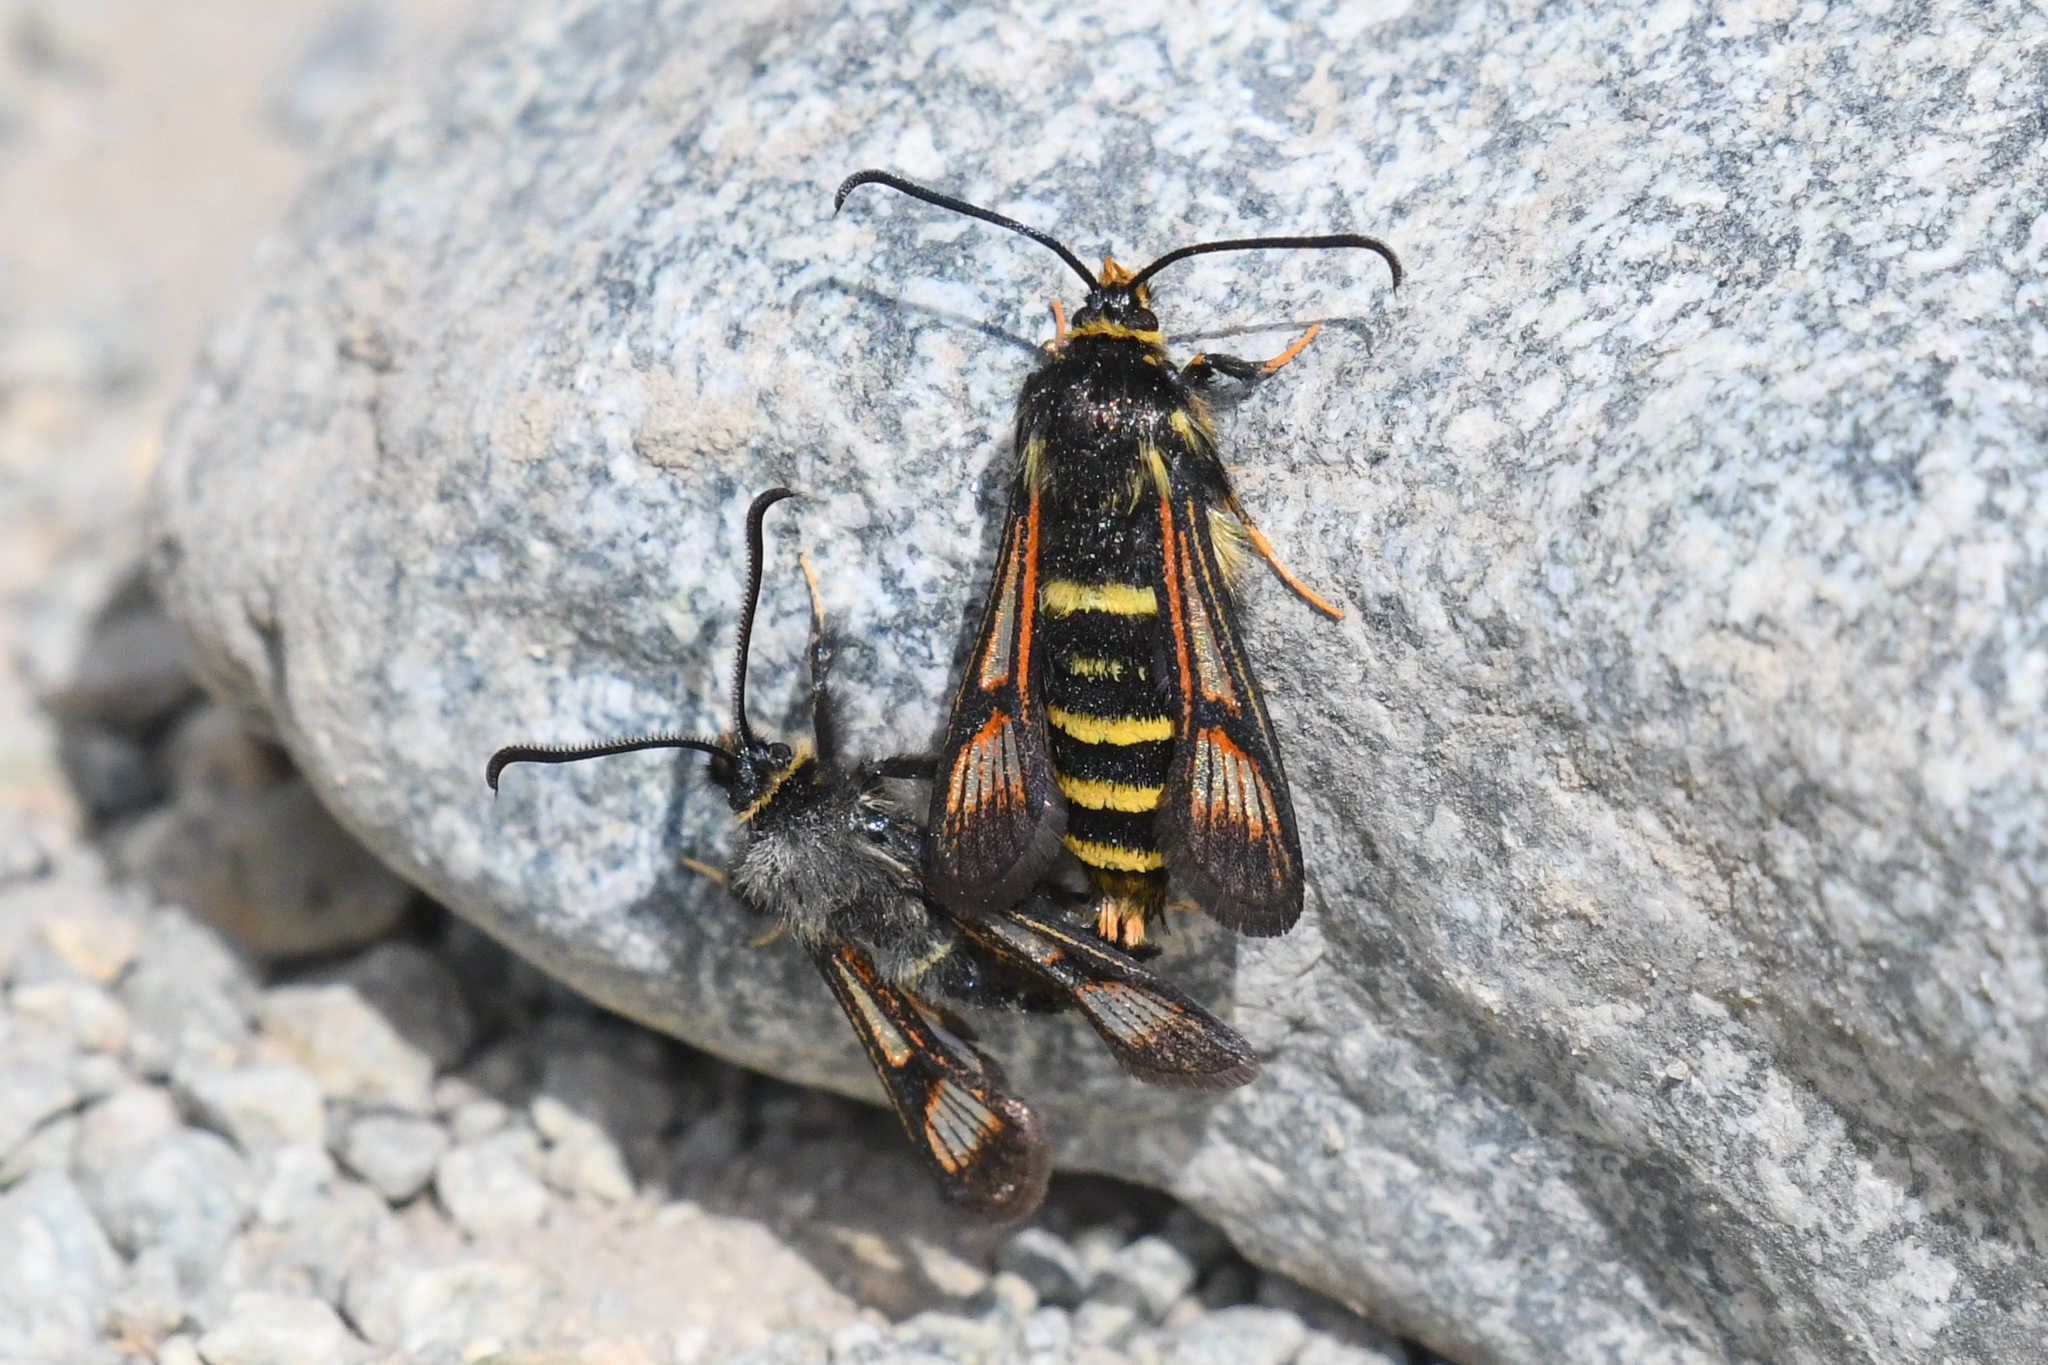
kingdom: Animalia
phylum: Arthropoda
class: Insecta
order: Lepidoptera
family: Sesiidae
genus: Albuna
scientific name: Albuna pyramidalis
